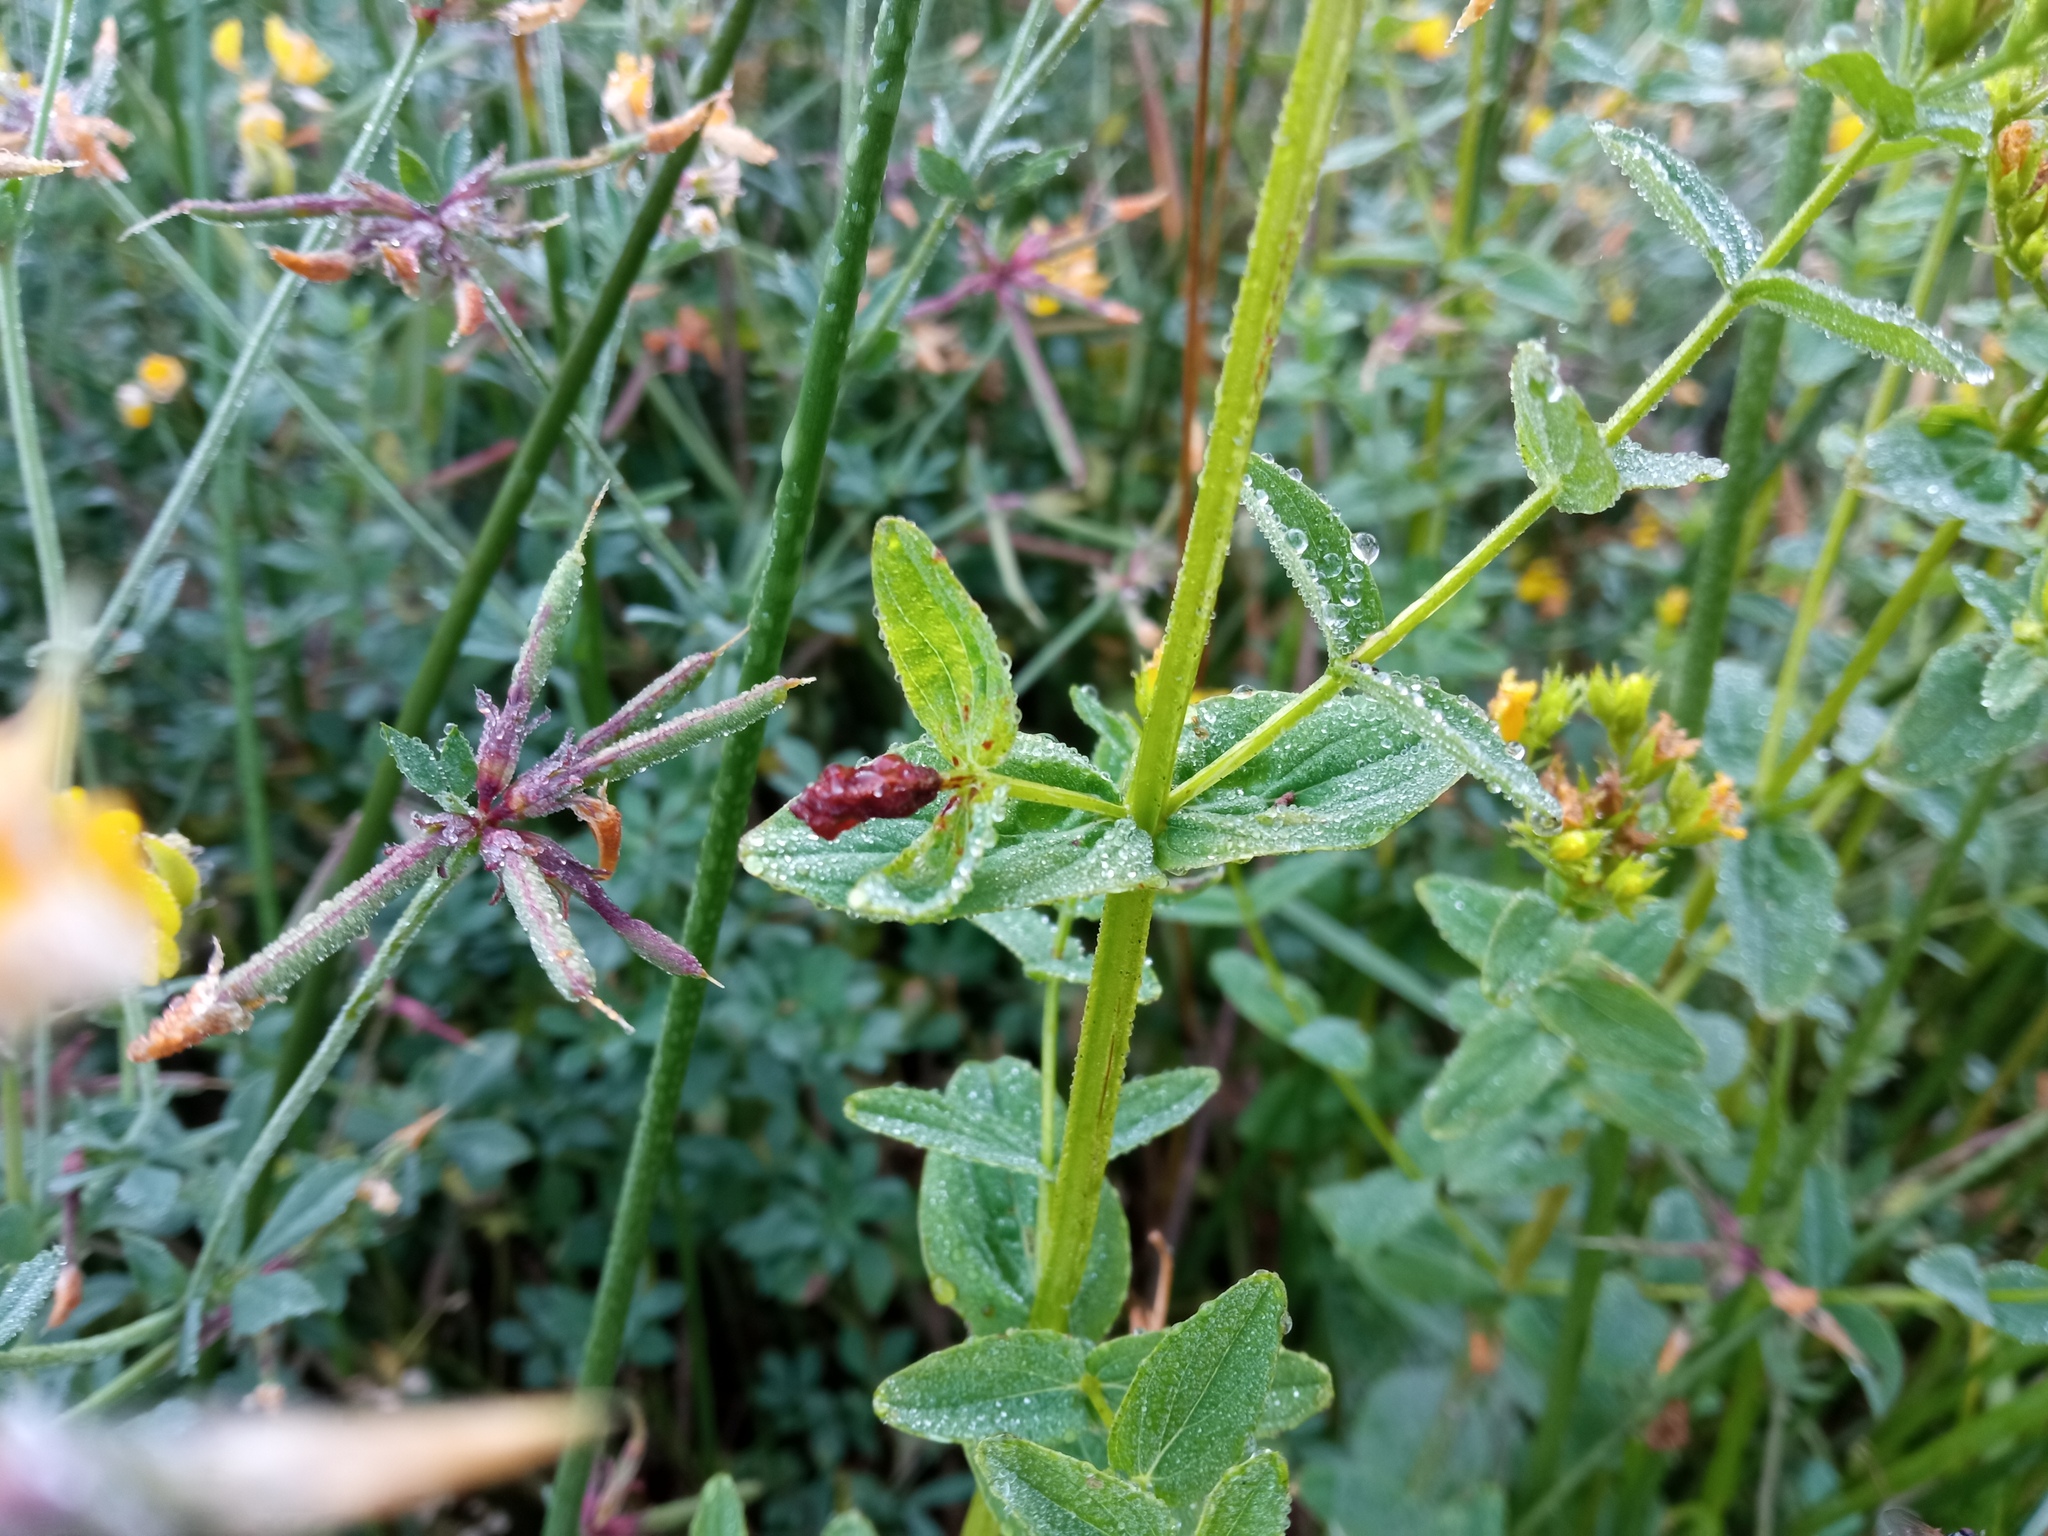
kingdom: Plantae
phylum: Tracheophyta
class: Magnoliopsida
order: Malpighiales
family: Hypericaceae
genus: Hypericum
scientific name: Hypericum tetrapterum
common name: Square-stalked st. john's-wort
